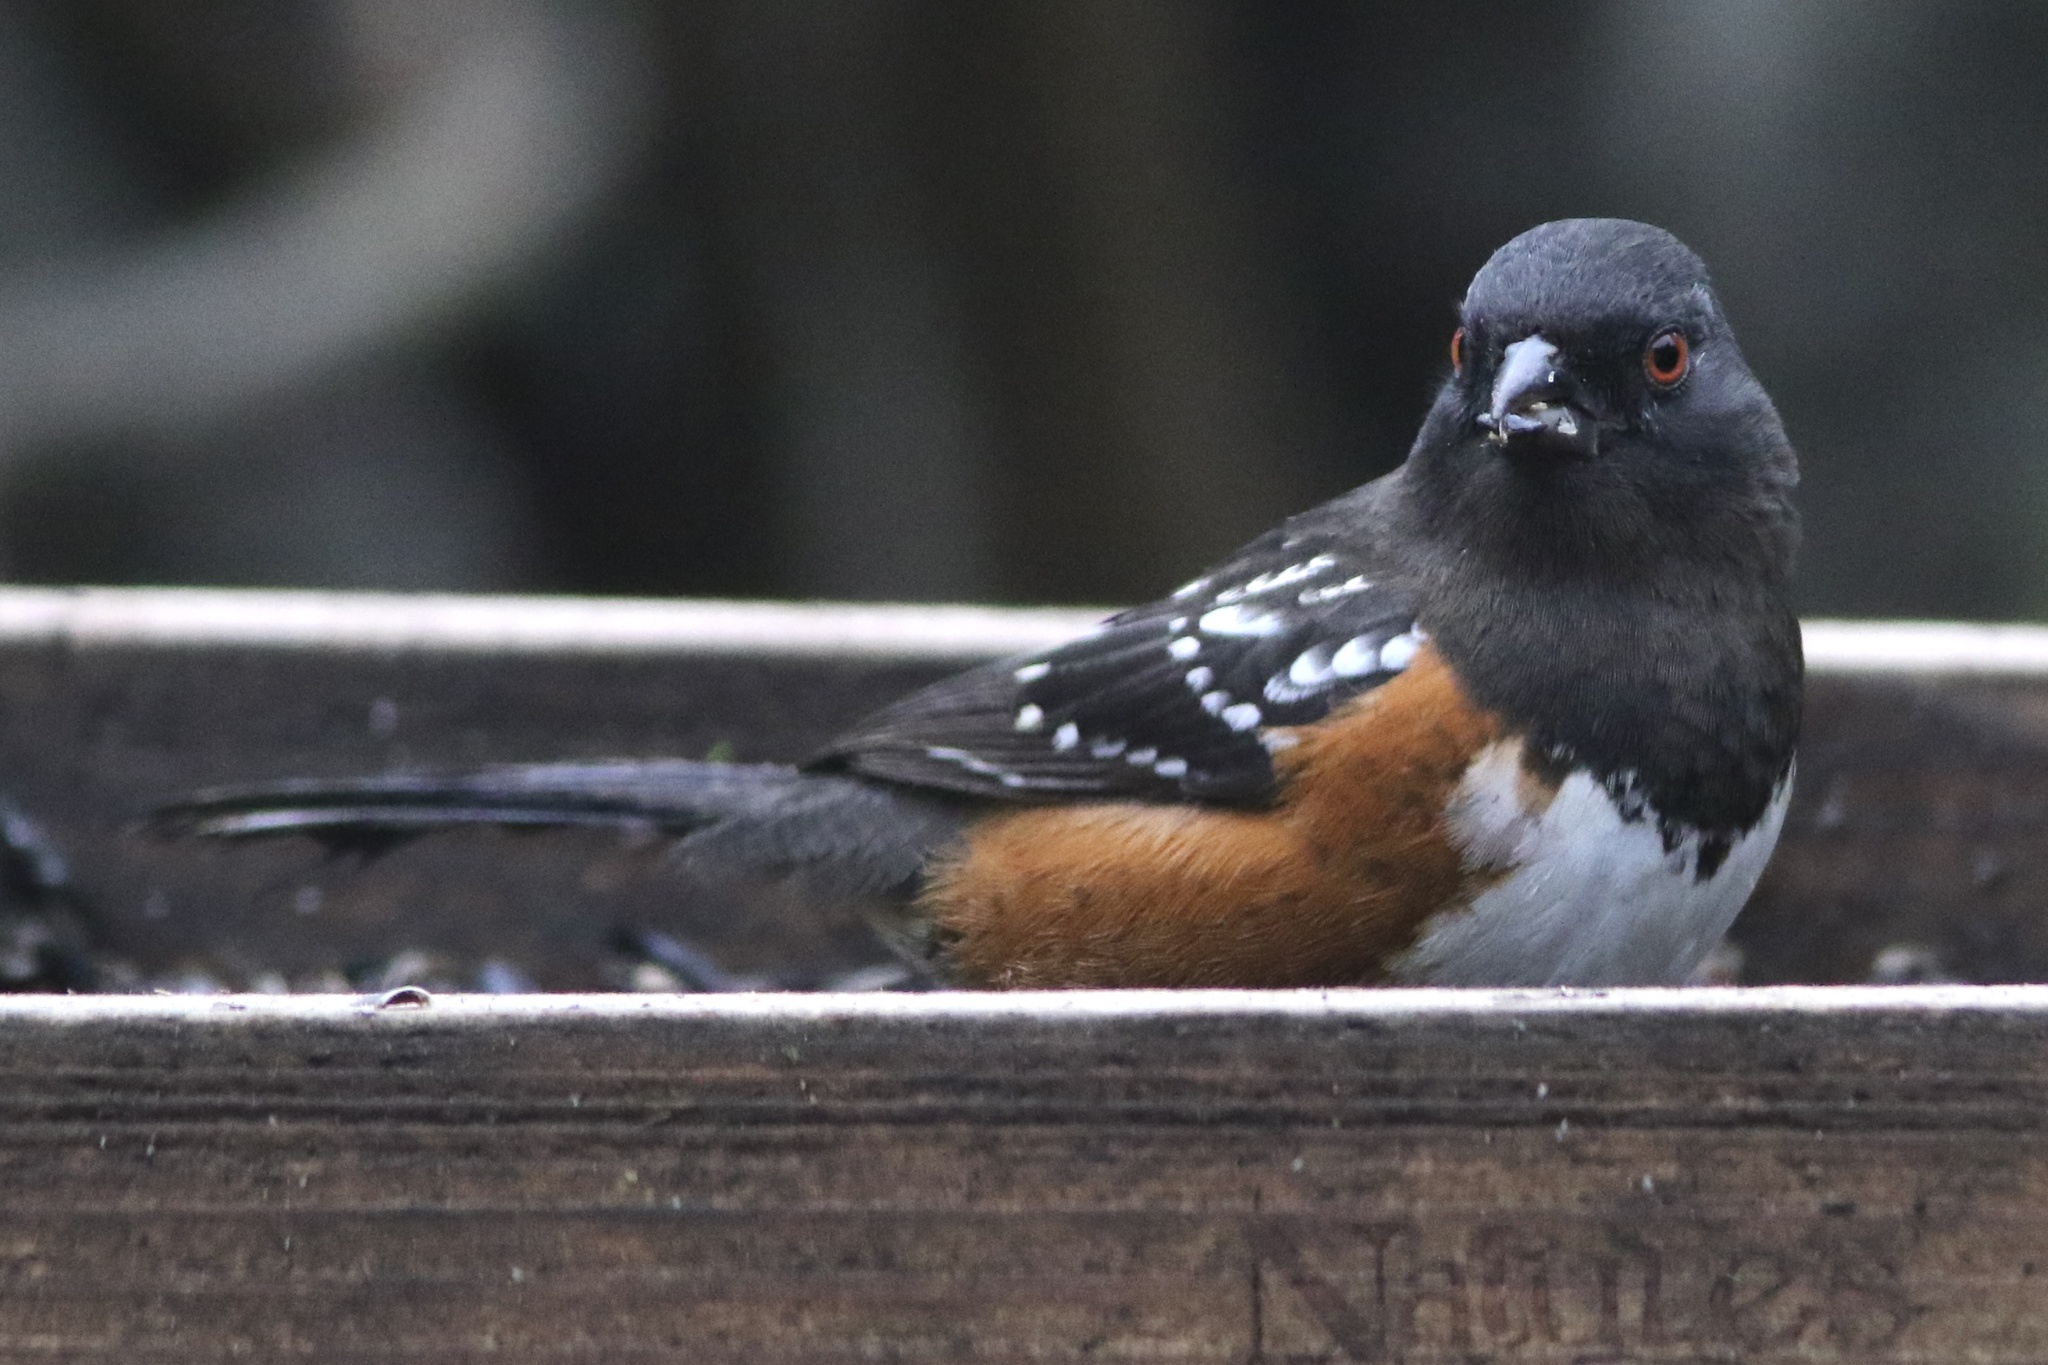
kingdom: Animalia
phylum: Chordata
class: Aves
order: Passeriformes
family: Passerellidae
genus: Pipilo
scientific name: Pipilo maculatus
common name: Spotted towhee
